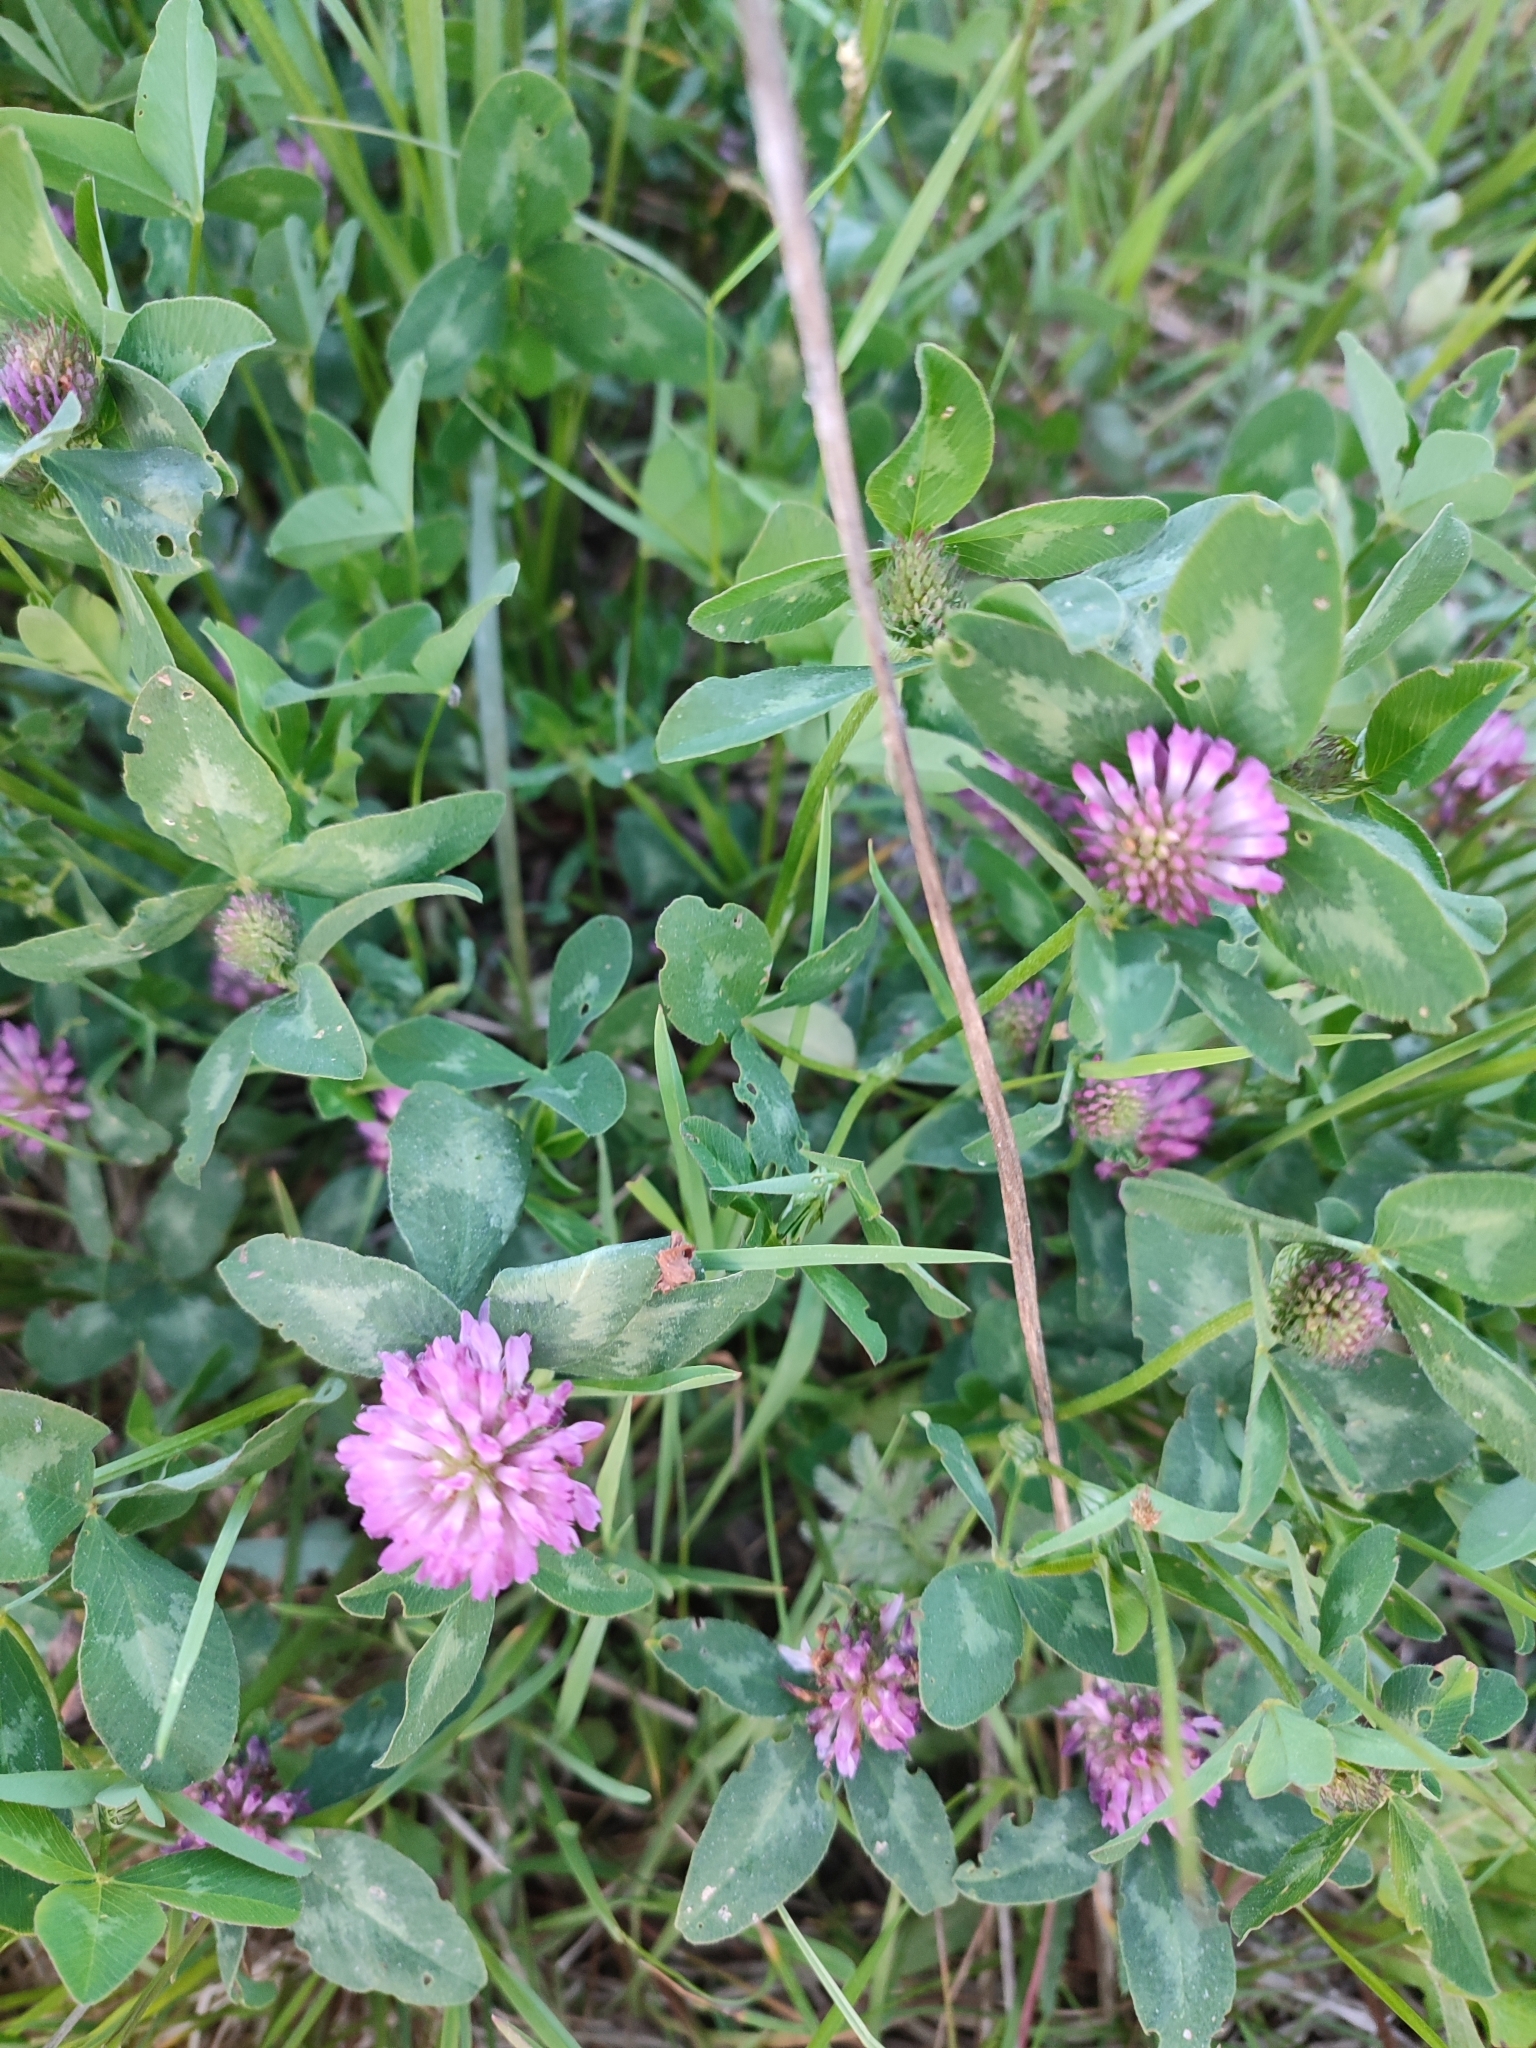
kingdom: Plantae
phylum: Tracheophyta
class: Magnoliopsida
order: Fabales
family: Fabaceae
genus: Trifolium
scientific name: Trifolium pratense
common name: Red clover
